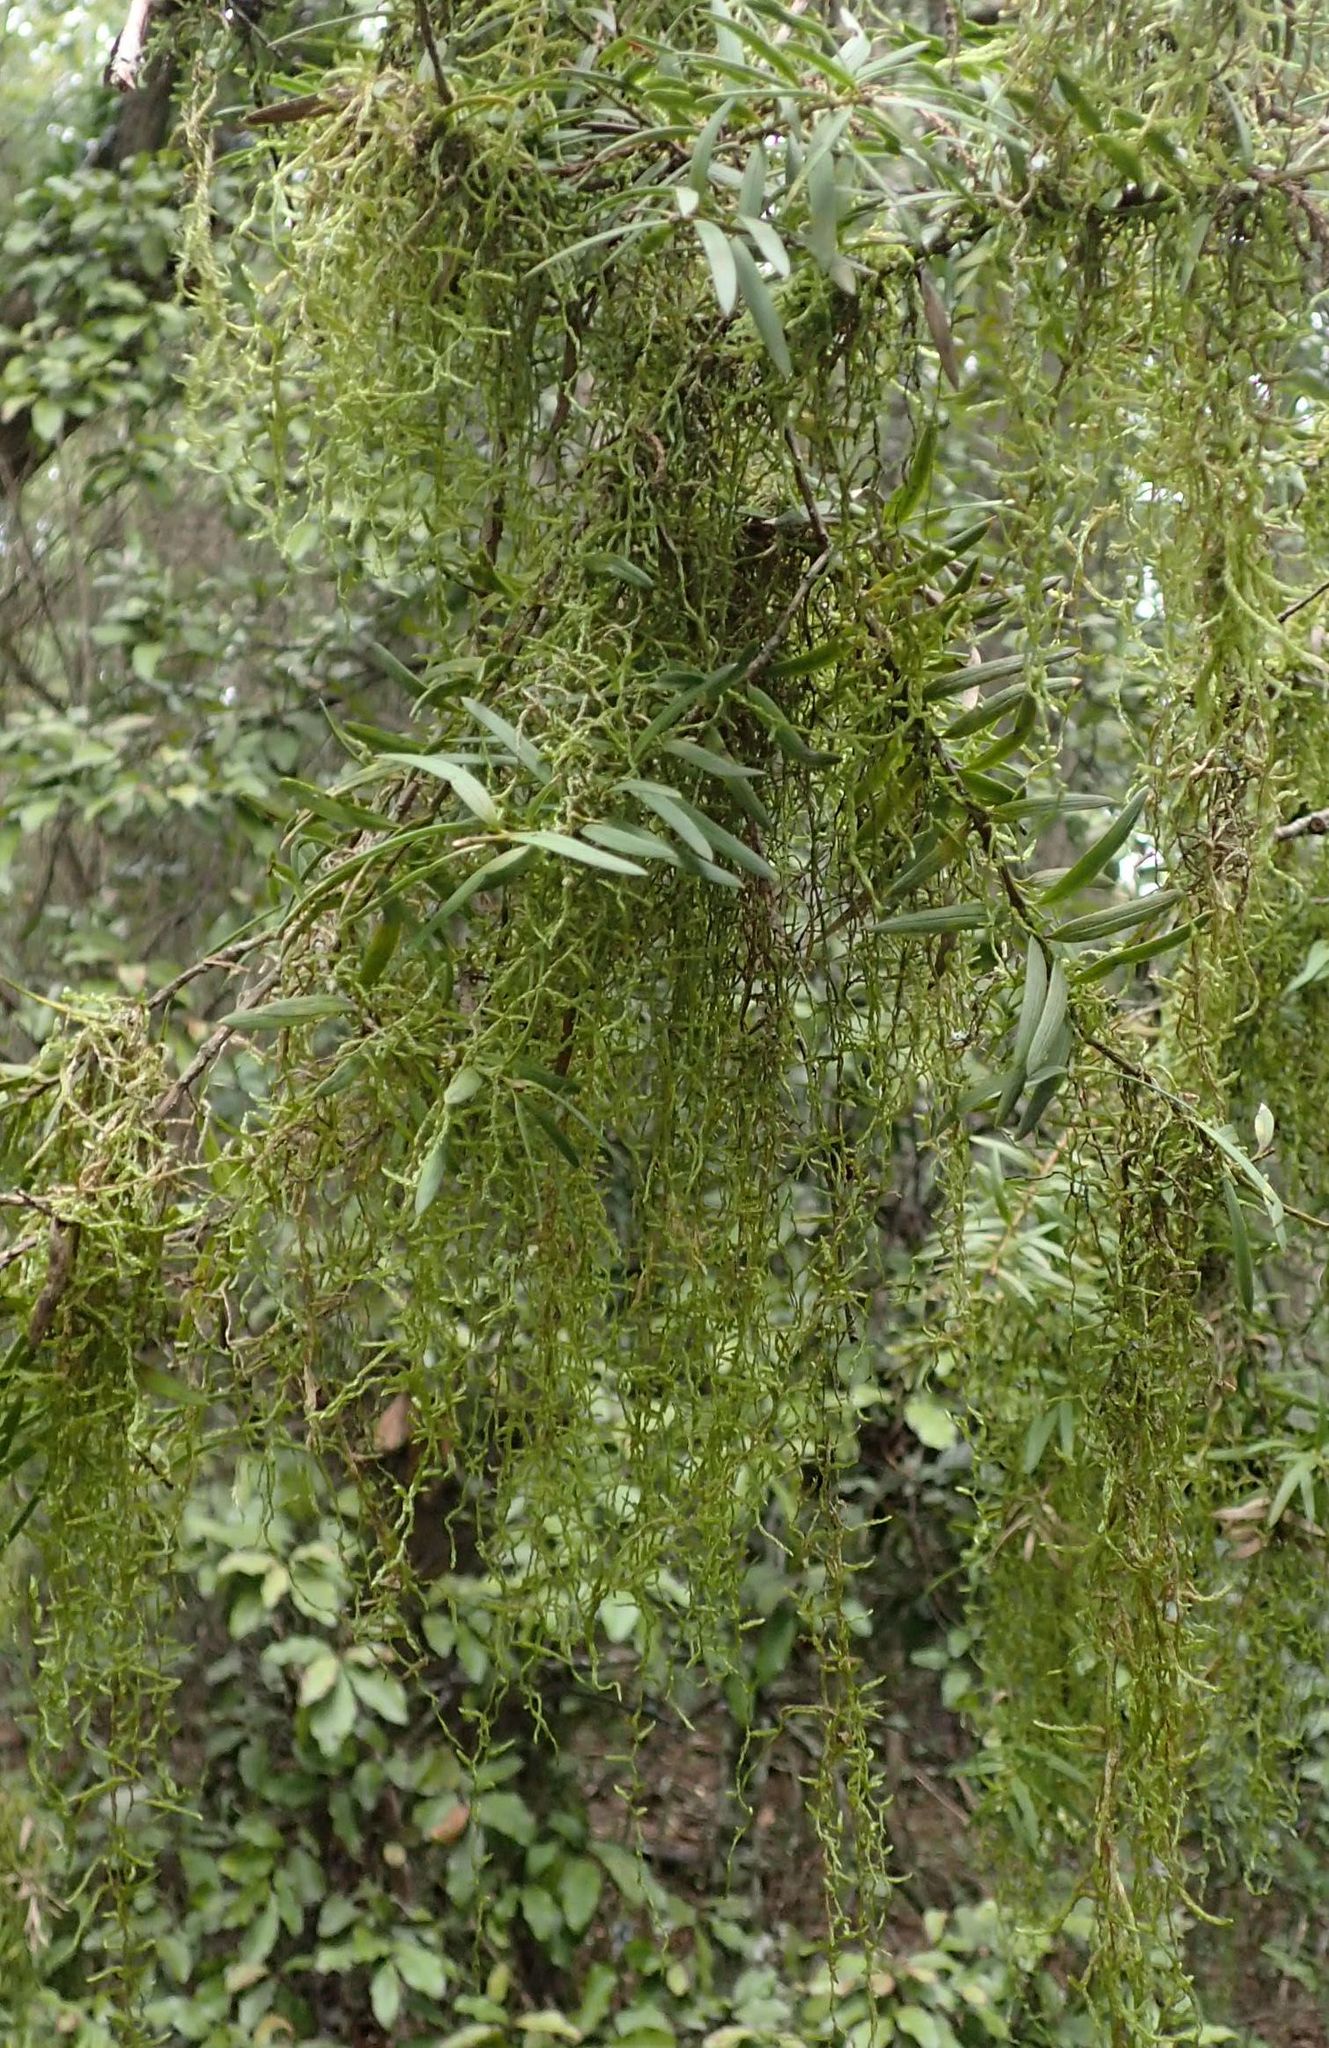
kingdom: Plantae
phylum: Bryophyta
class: Bryopsida
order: Hypnales
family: Lembophyllaceae
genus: Weymouthia
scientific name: Weymouthia mollis
